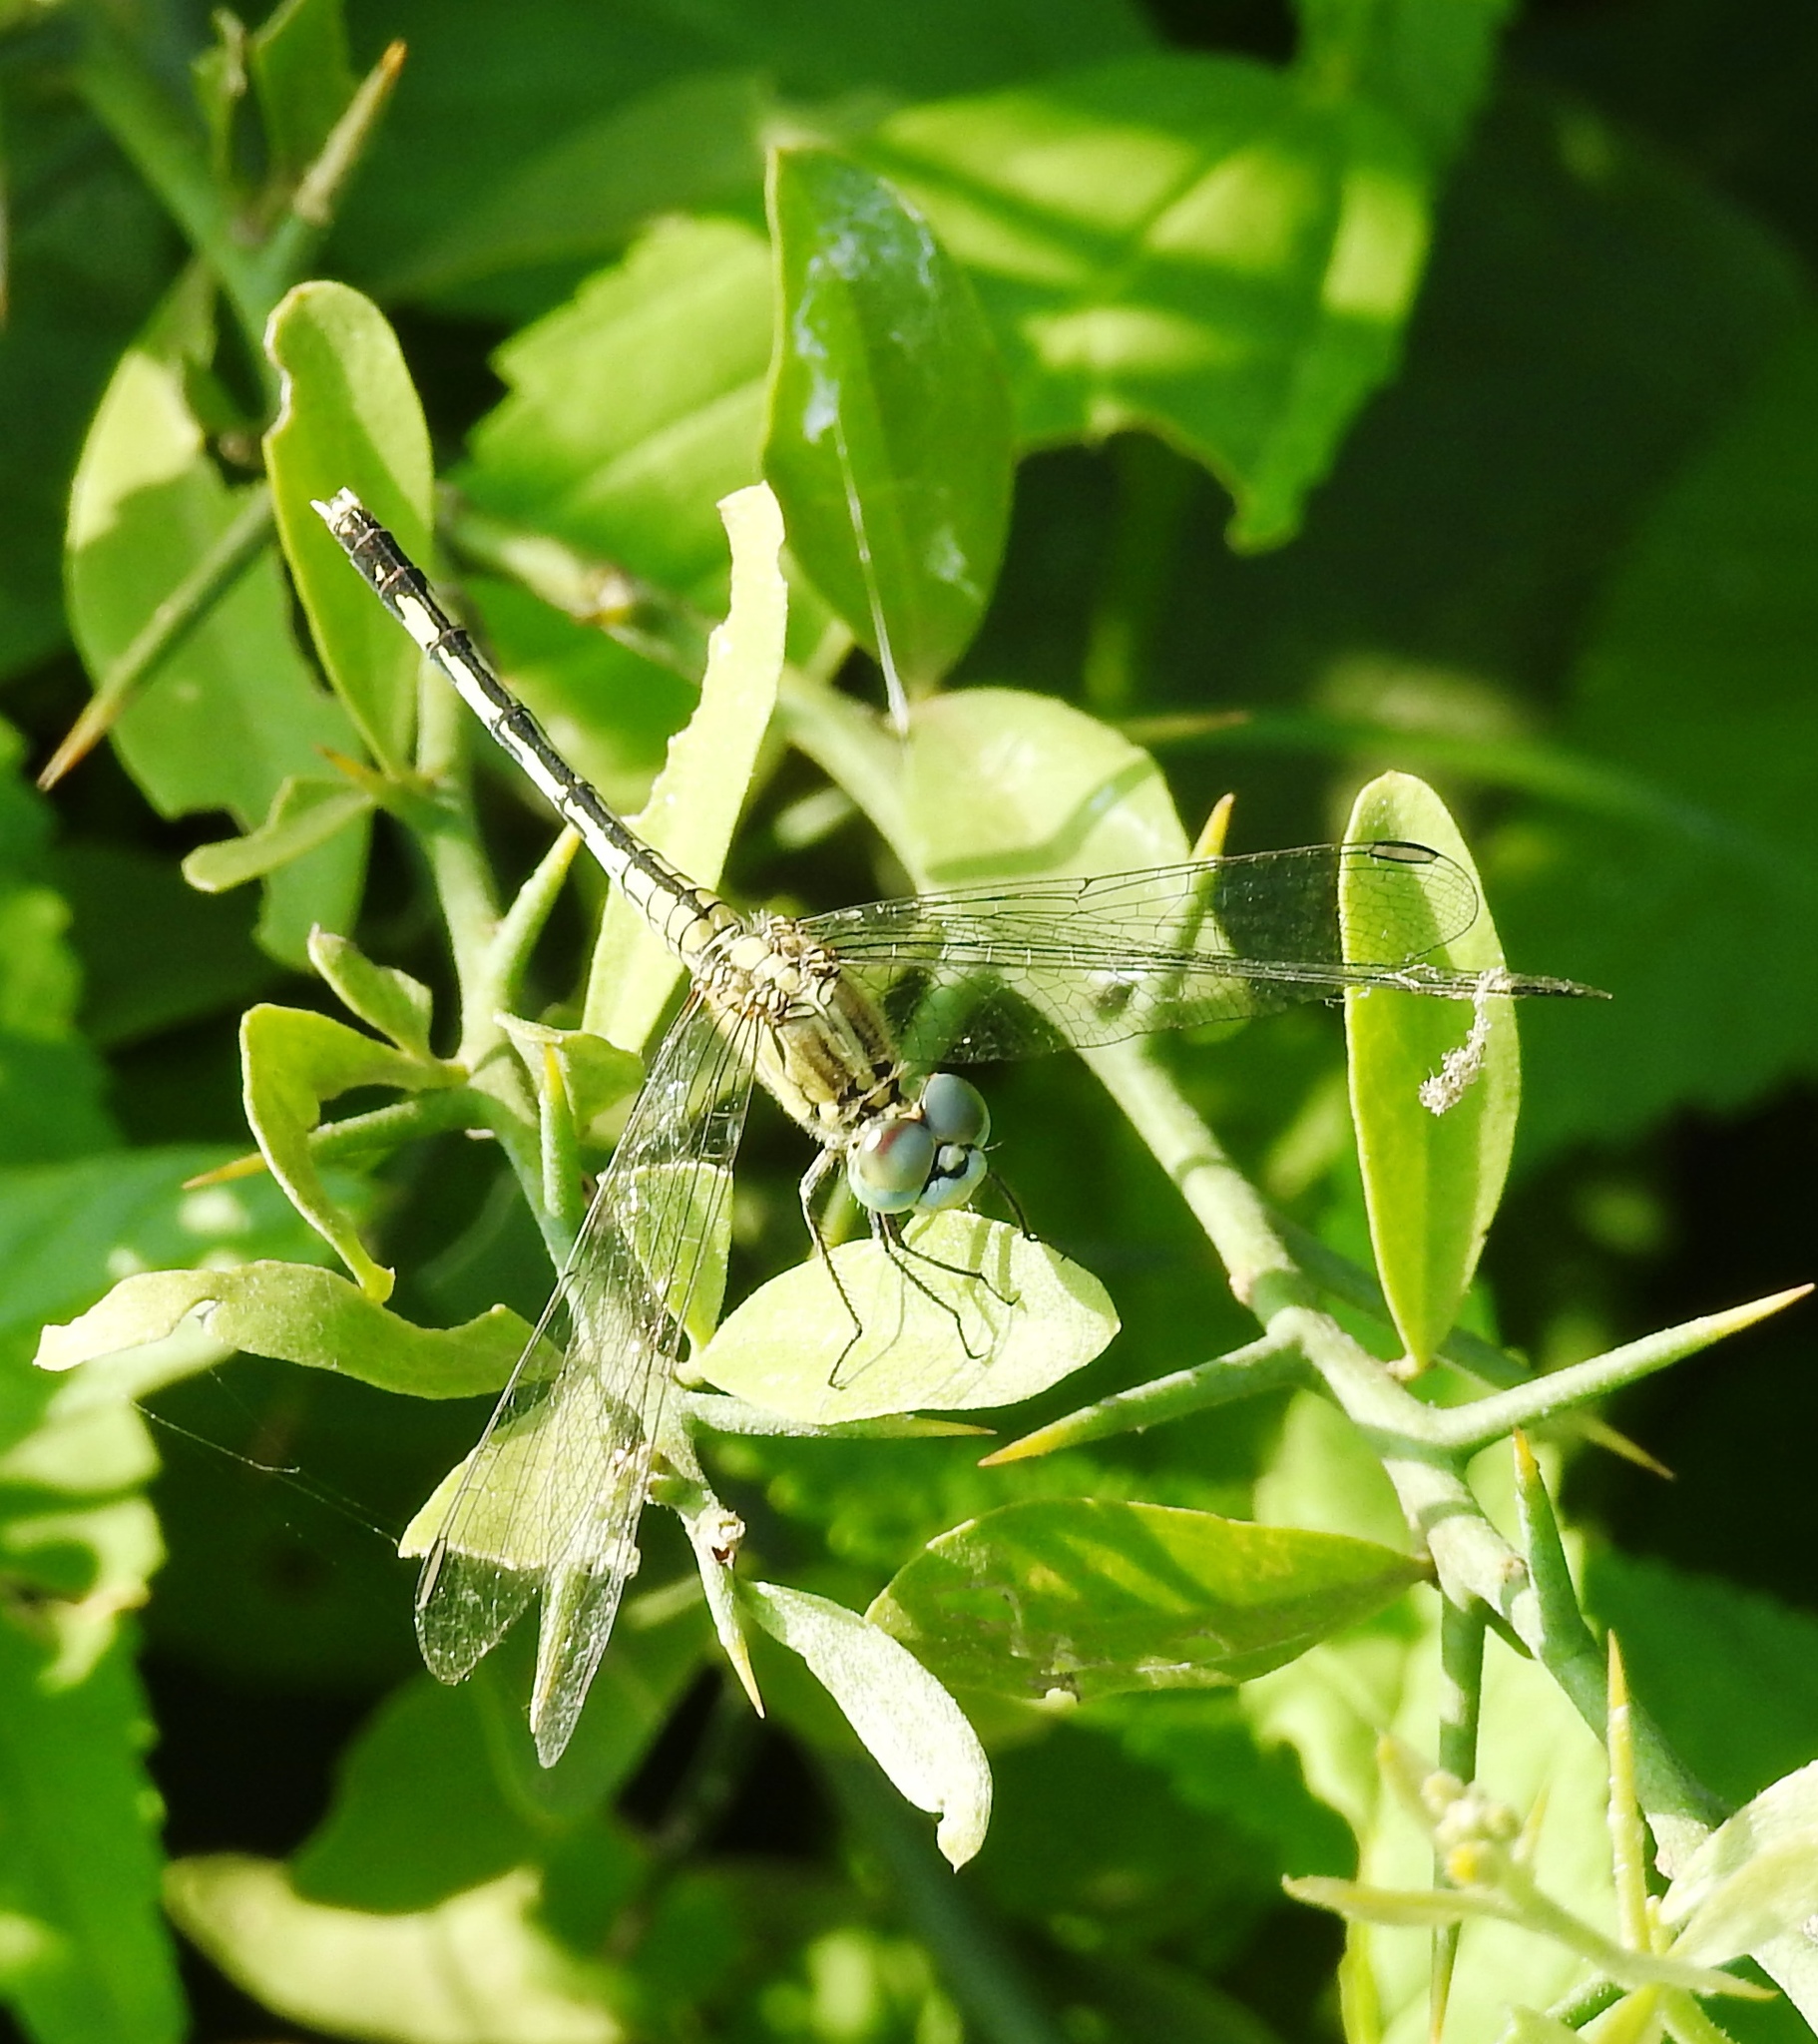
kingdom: Animalia
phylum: Arthropoda
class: Insecta
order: Odonata
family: Libellulidae
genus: Diplacodes
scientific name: Diplacodes trivialis
